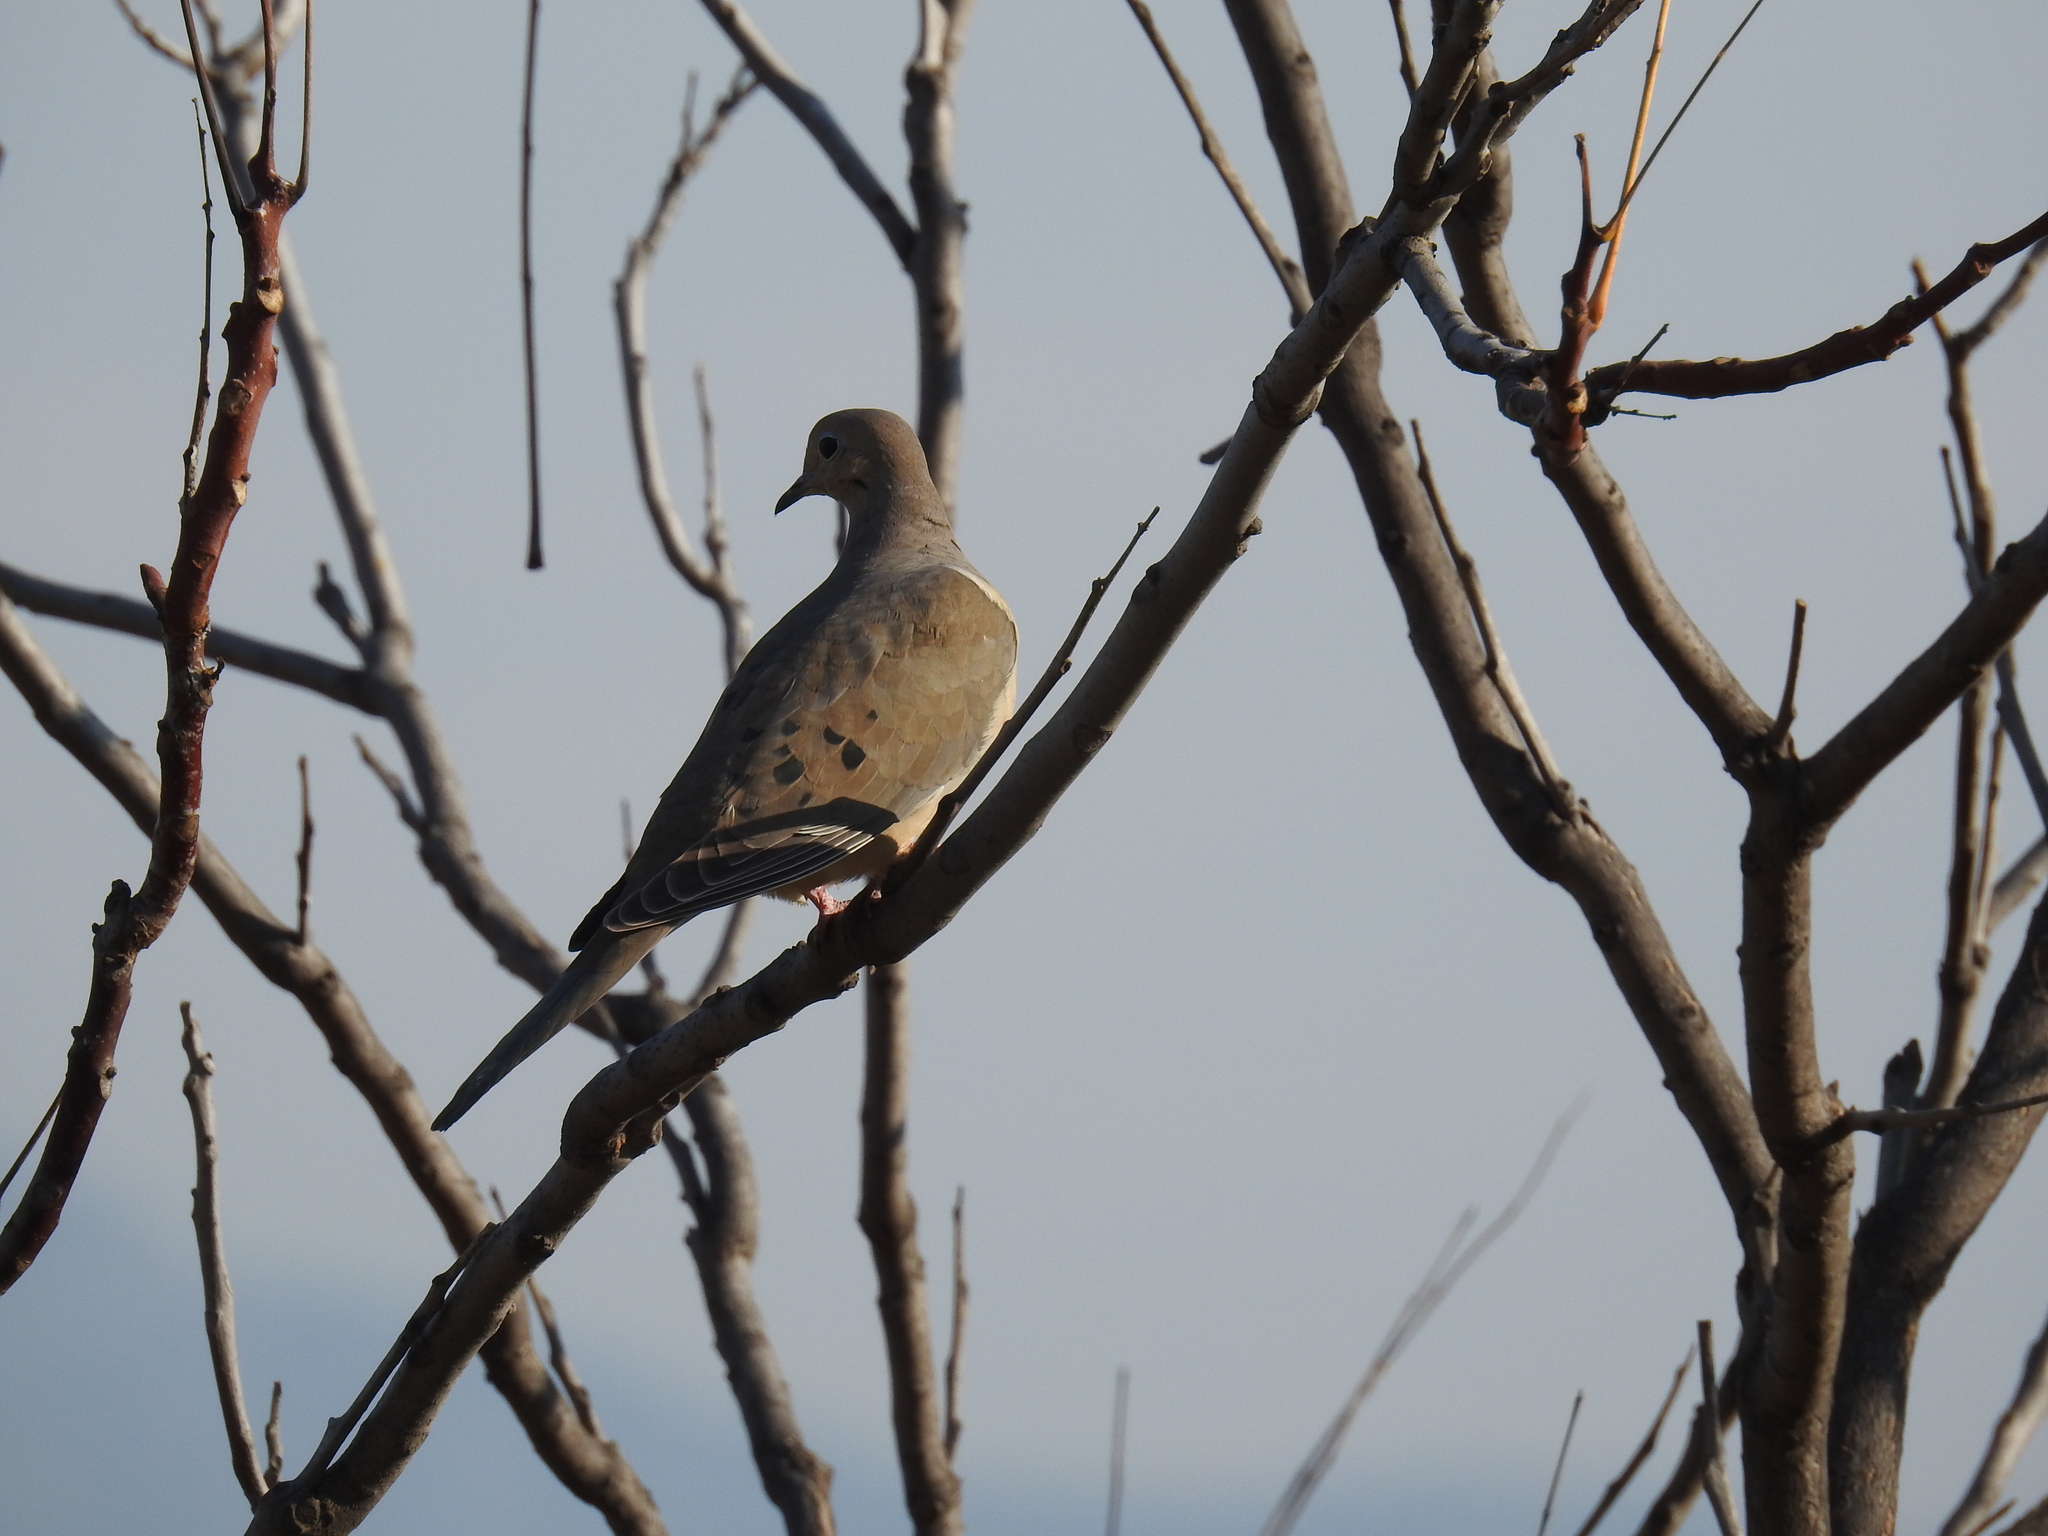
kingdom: Animalia
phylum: Chordata
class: Aves
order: Columbiformes
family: Columbidae
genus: Zenaida
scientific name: Zenaida macroura
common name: Mourning dove
